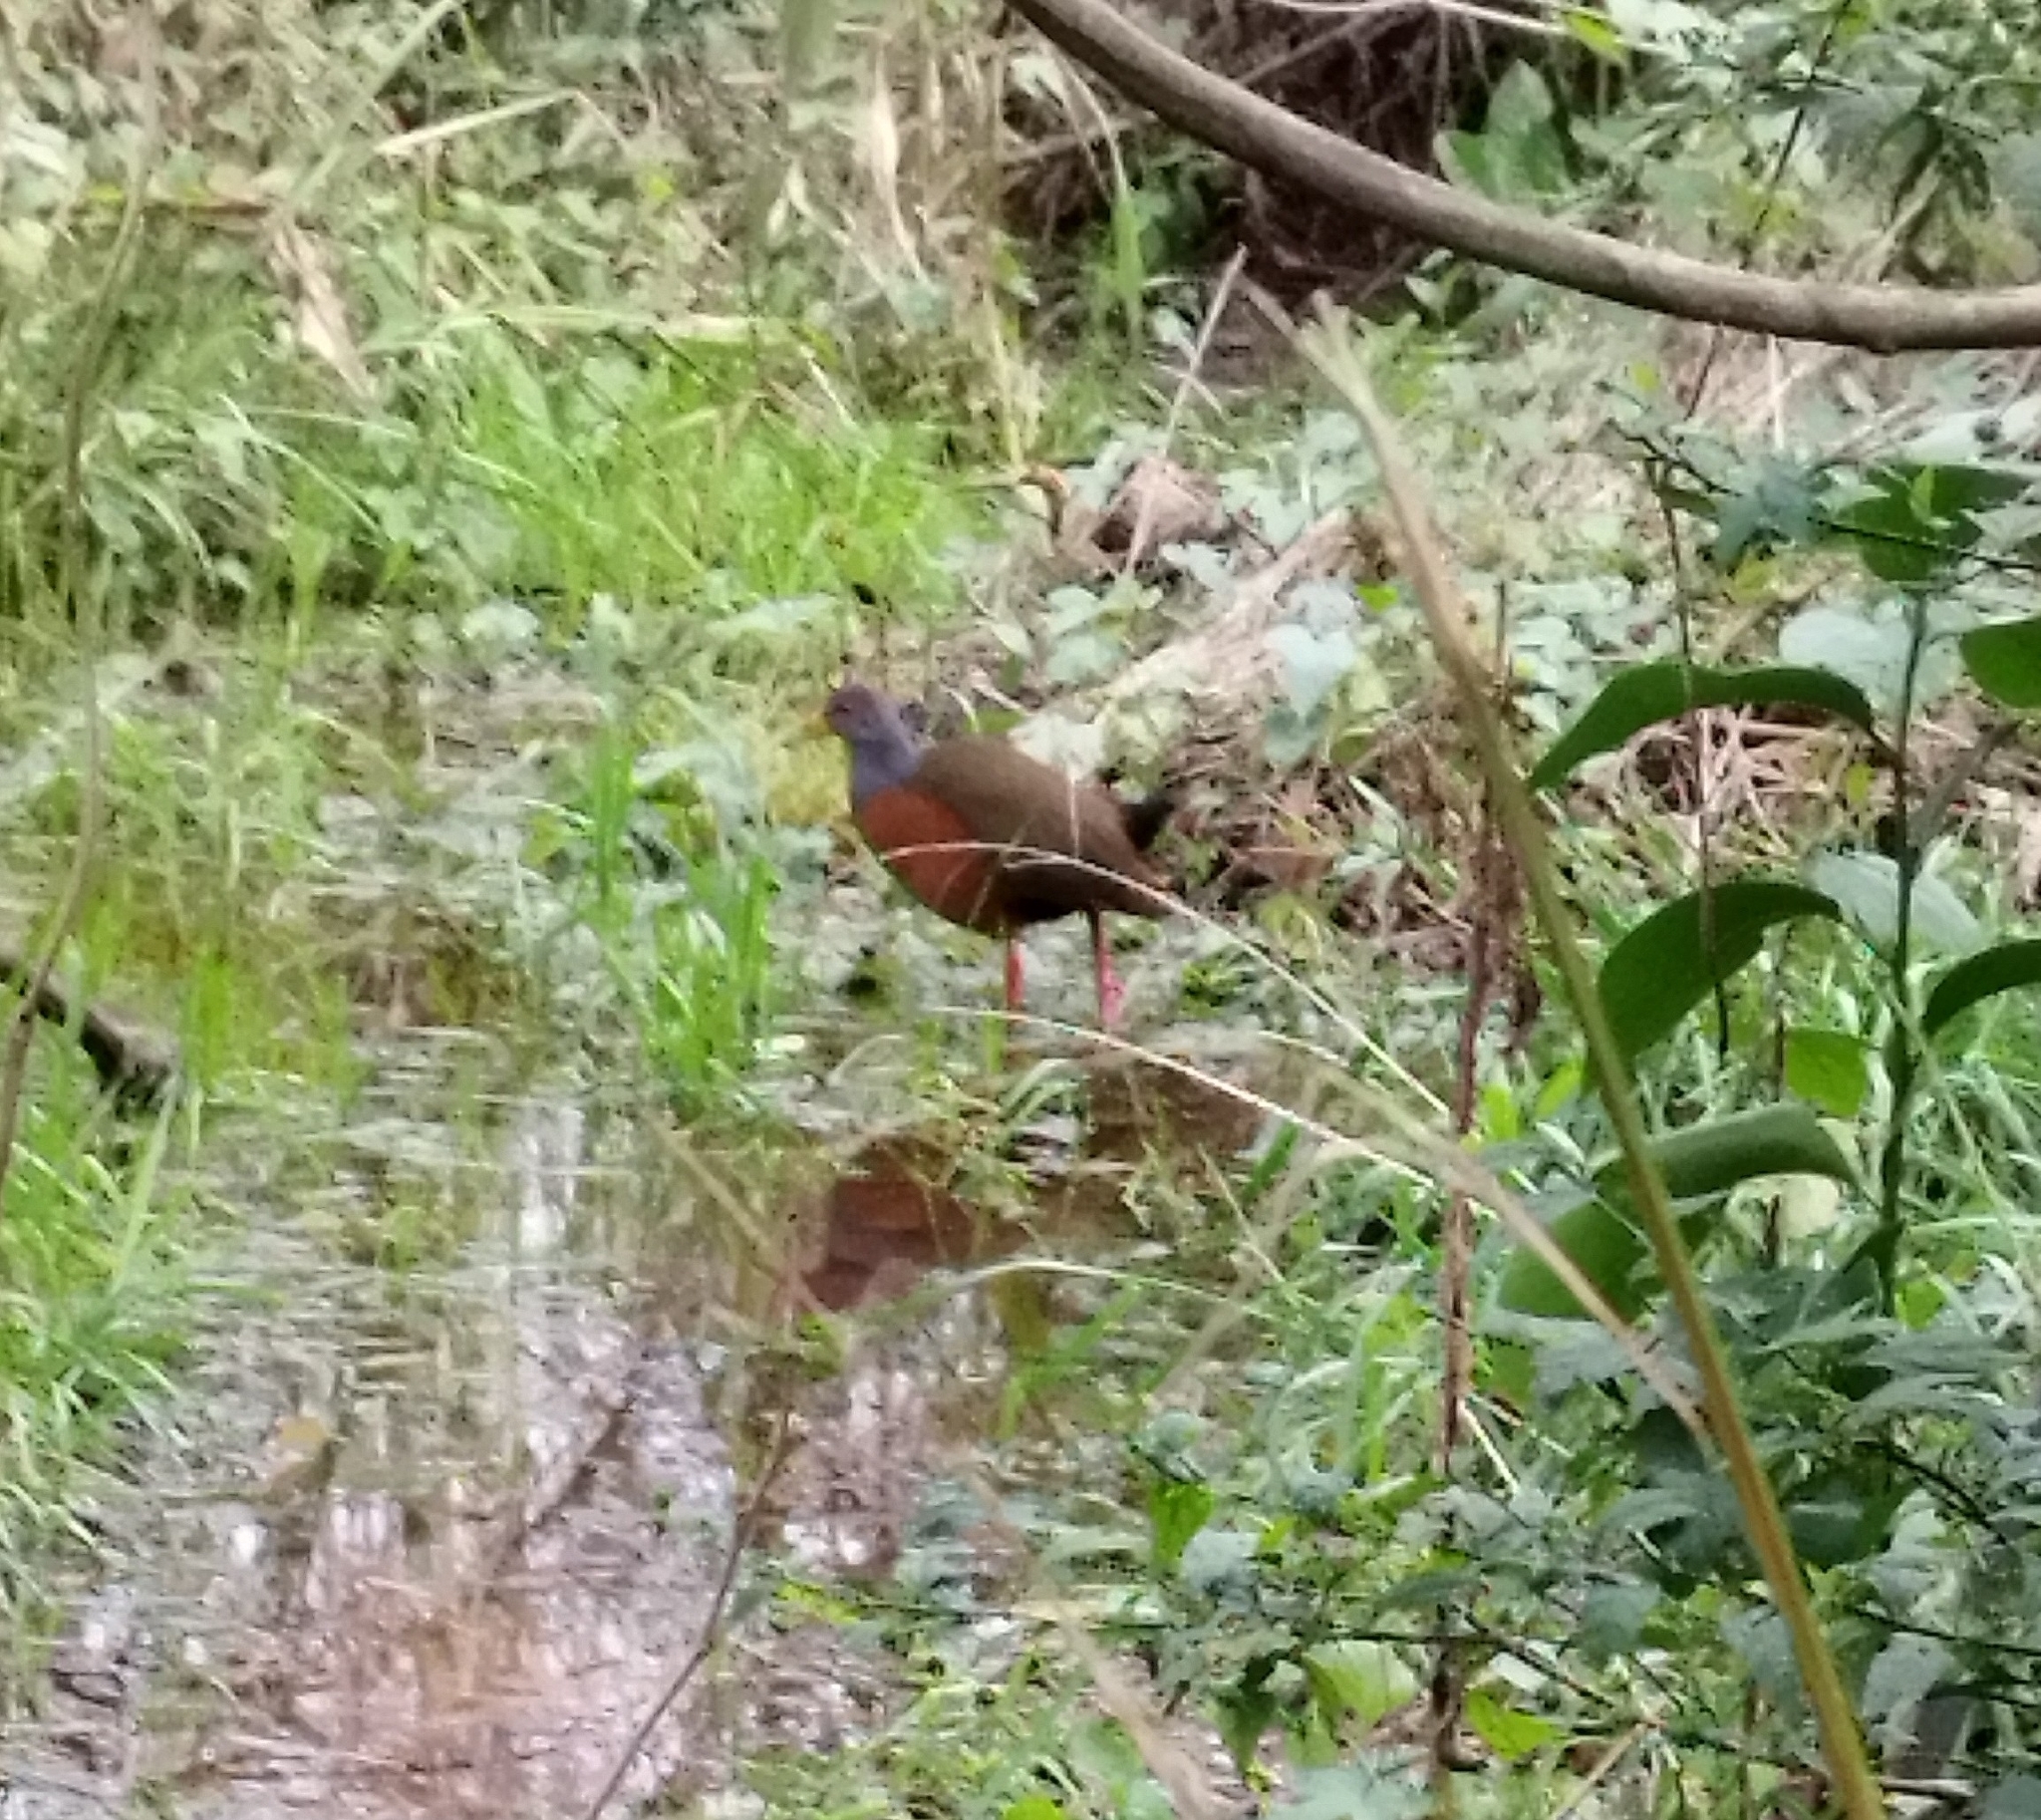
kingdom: Animalia
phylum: Chordata
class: Aves
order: Gruiformes
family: Rallidae
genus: Aramides
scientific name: Aramides cajanea
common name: Gray-necked wood-rail
